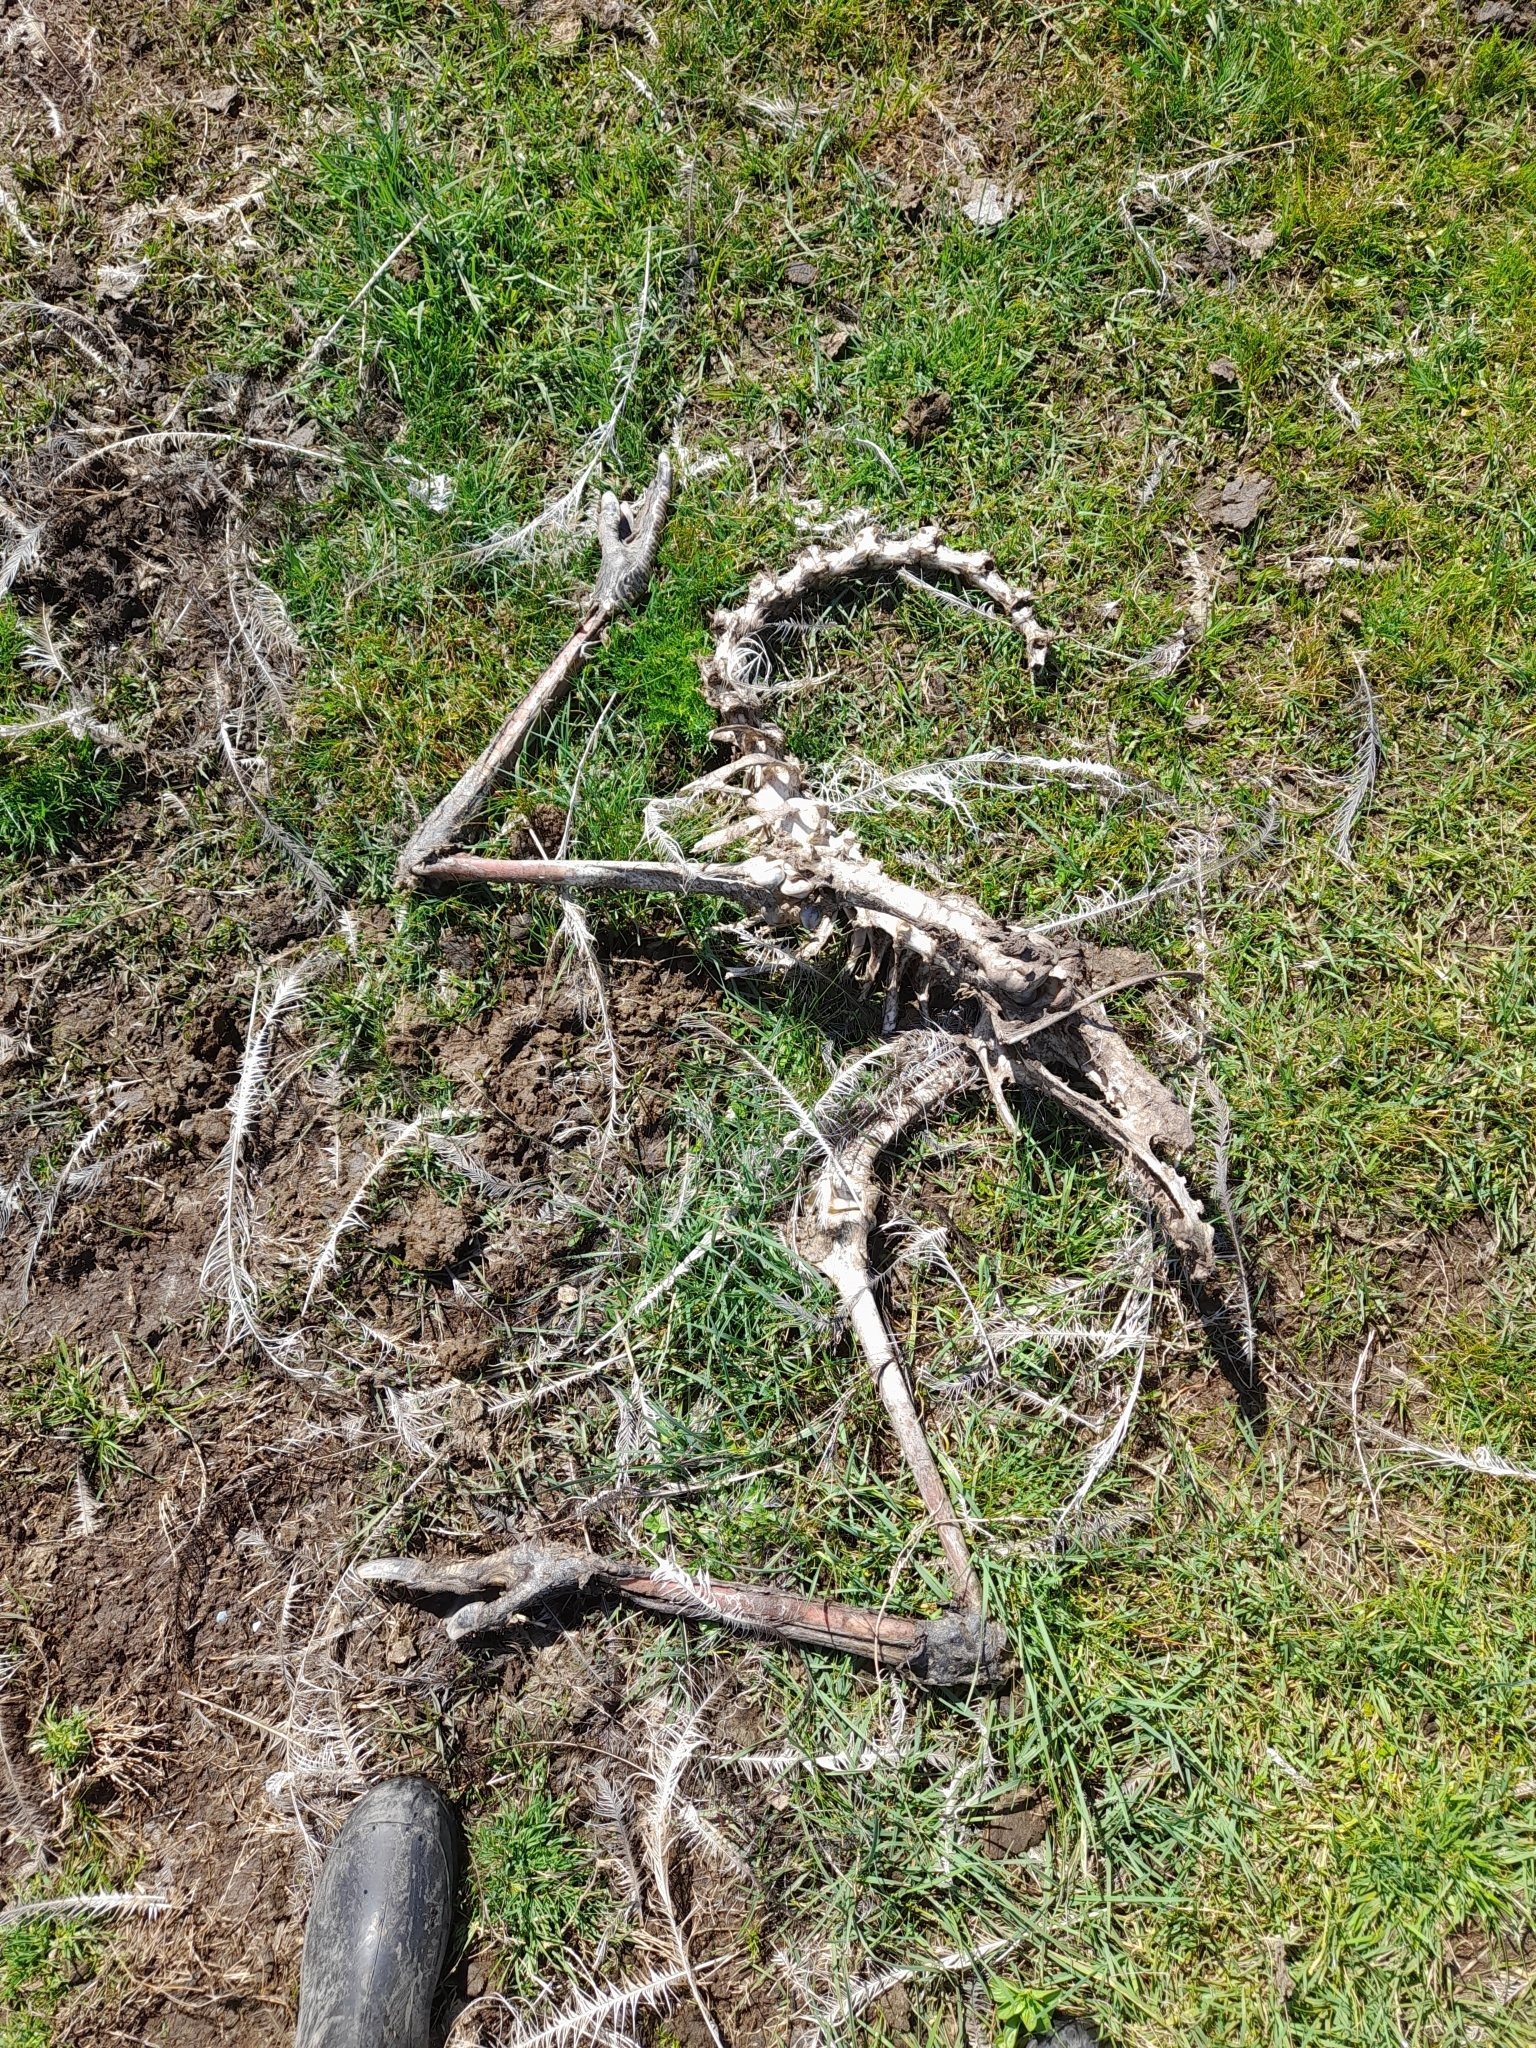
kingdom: Animalia
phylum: Chordata
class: Aves
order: Rheiformes
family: Rheidae
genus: Rhea
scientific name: Rhea americana
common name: Greater rhea
